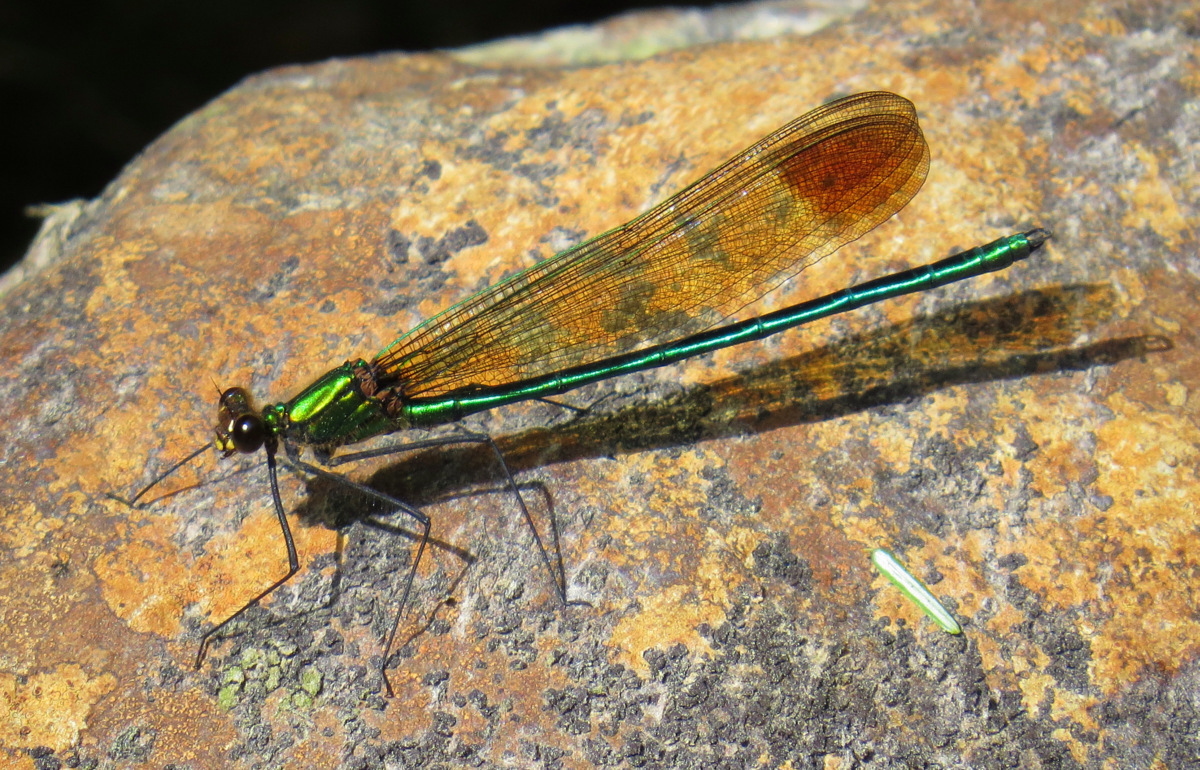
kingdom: Animalia
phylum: Arthropoda
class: Insecta
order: Odonata
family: Calopterygidae
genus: Calopteryx
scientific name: Calopteryx amata
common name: Superb jewelwing
